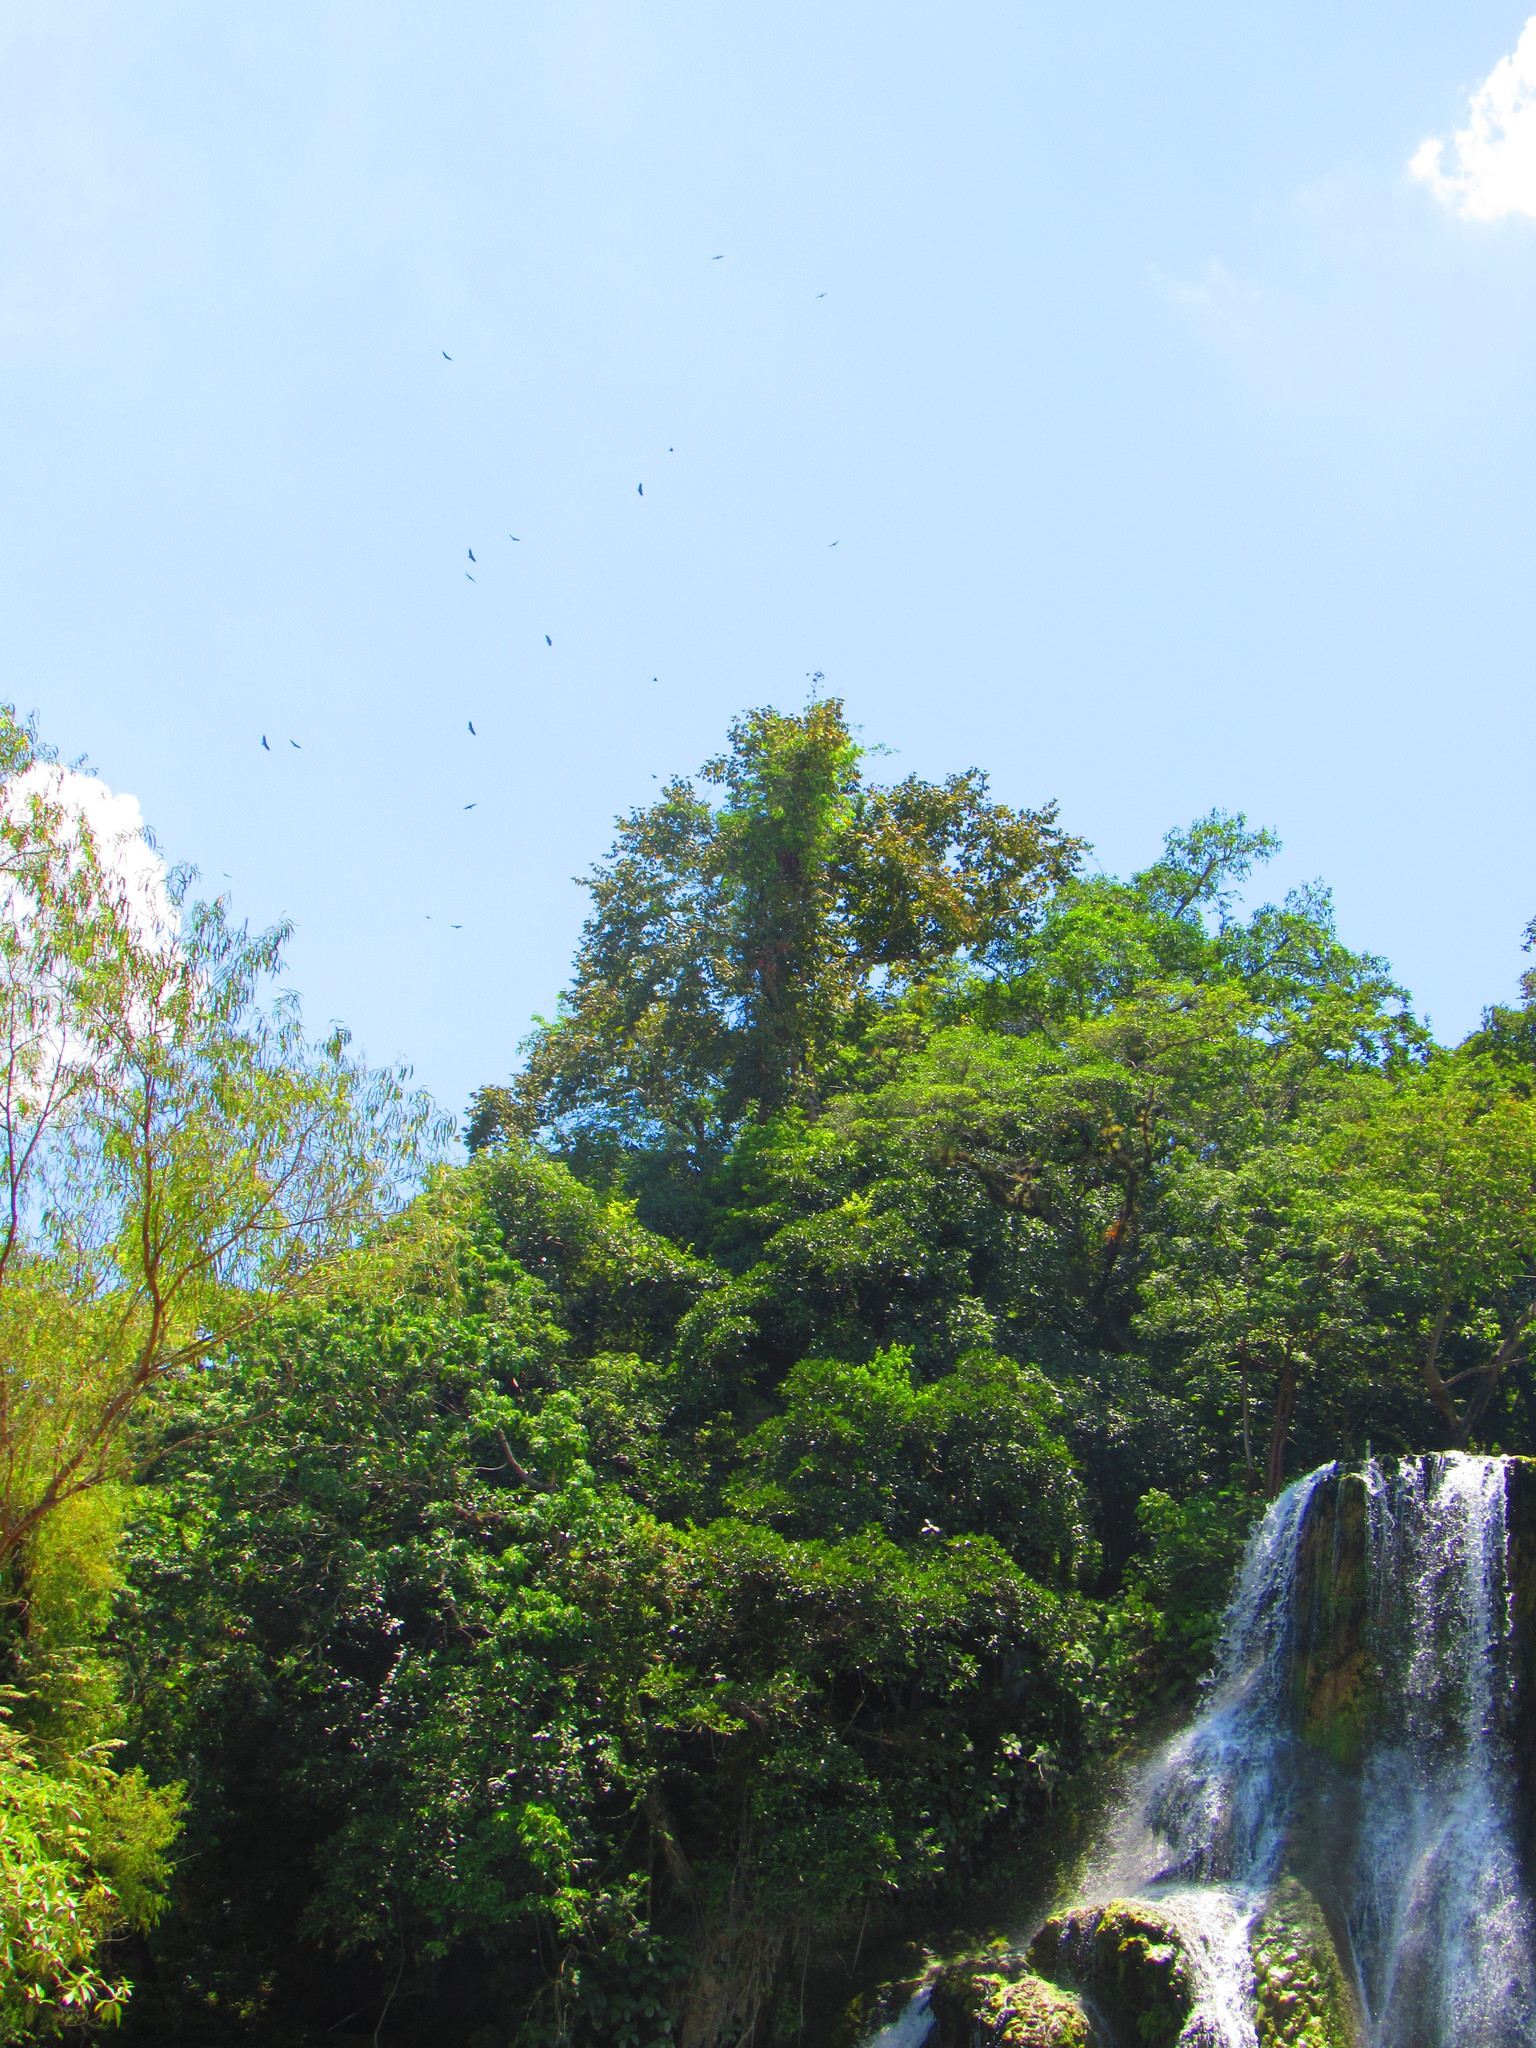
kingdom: Animalia
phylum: Chordata
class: Aves
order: Accipitriformes
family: Cathartidae
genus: Coragyps
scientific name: Coragyps atratus
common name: Black vulture
